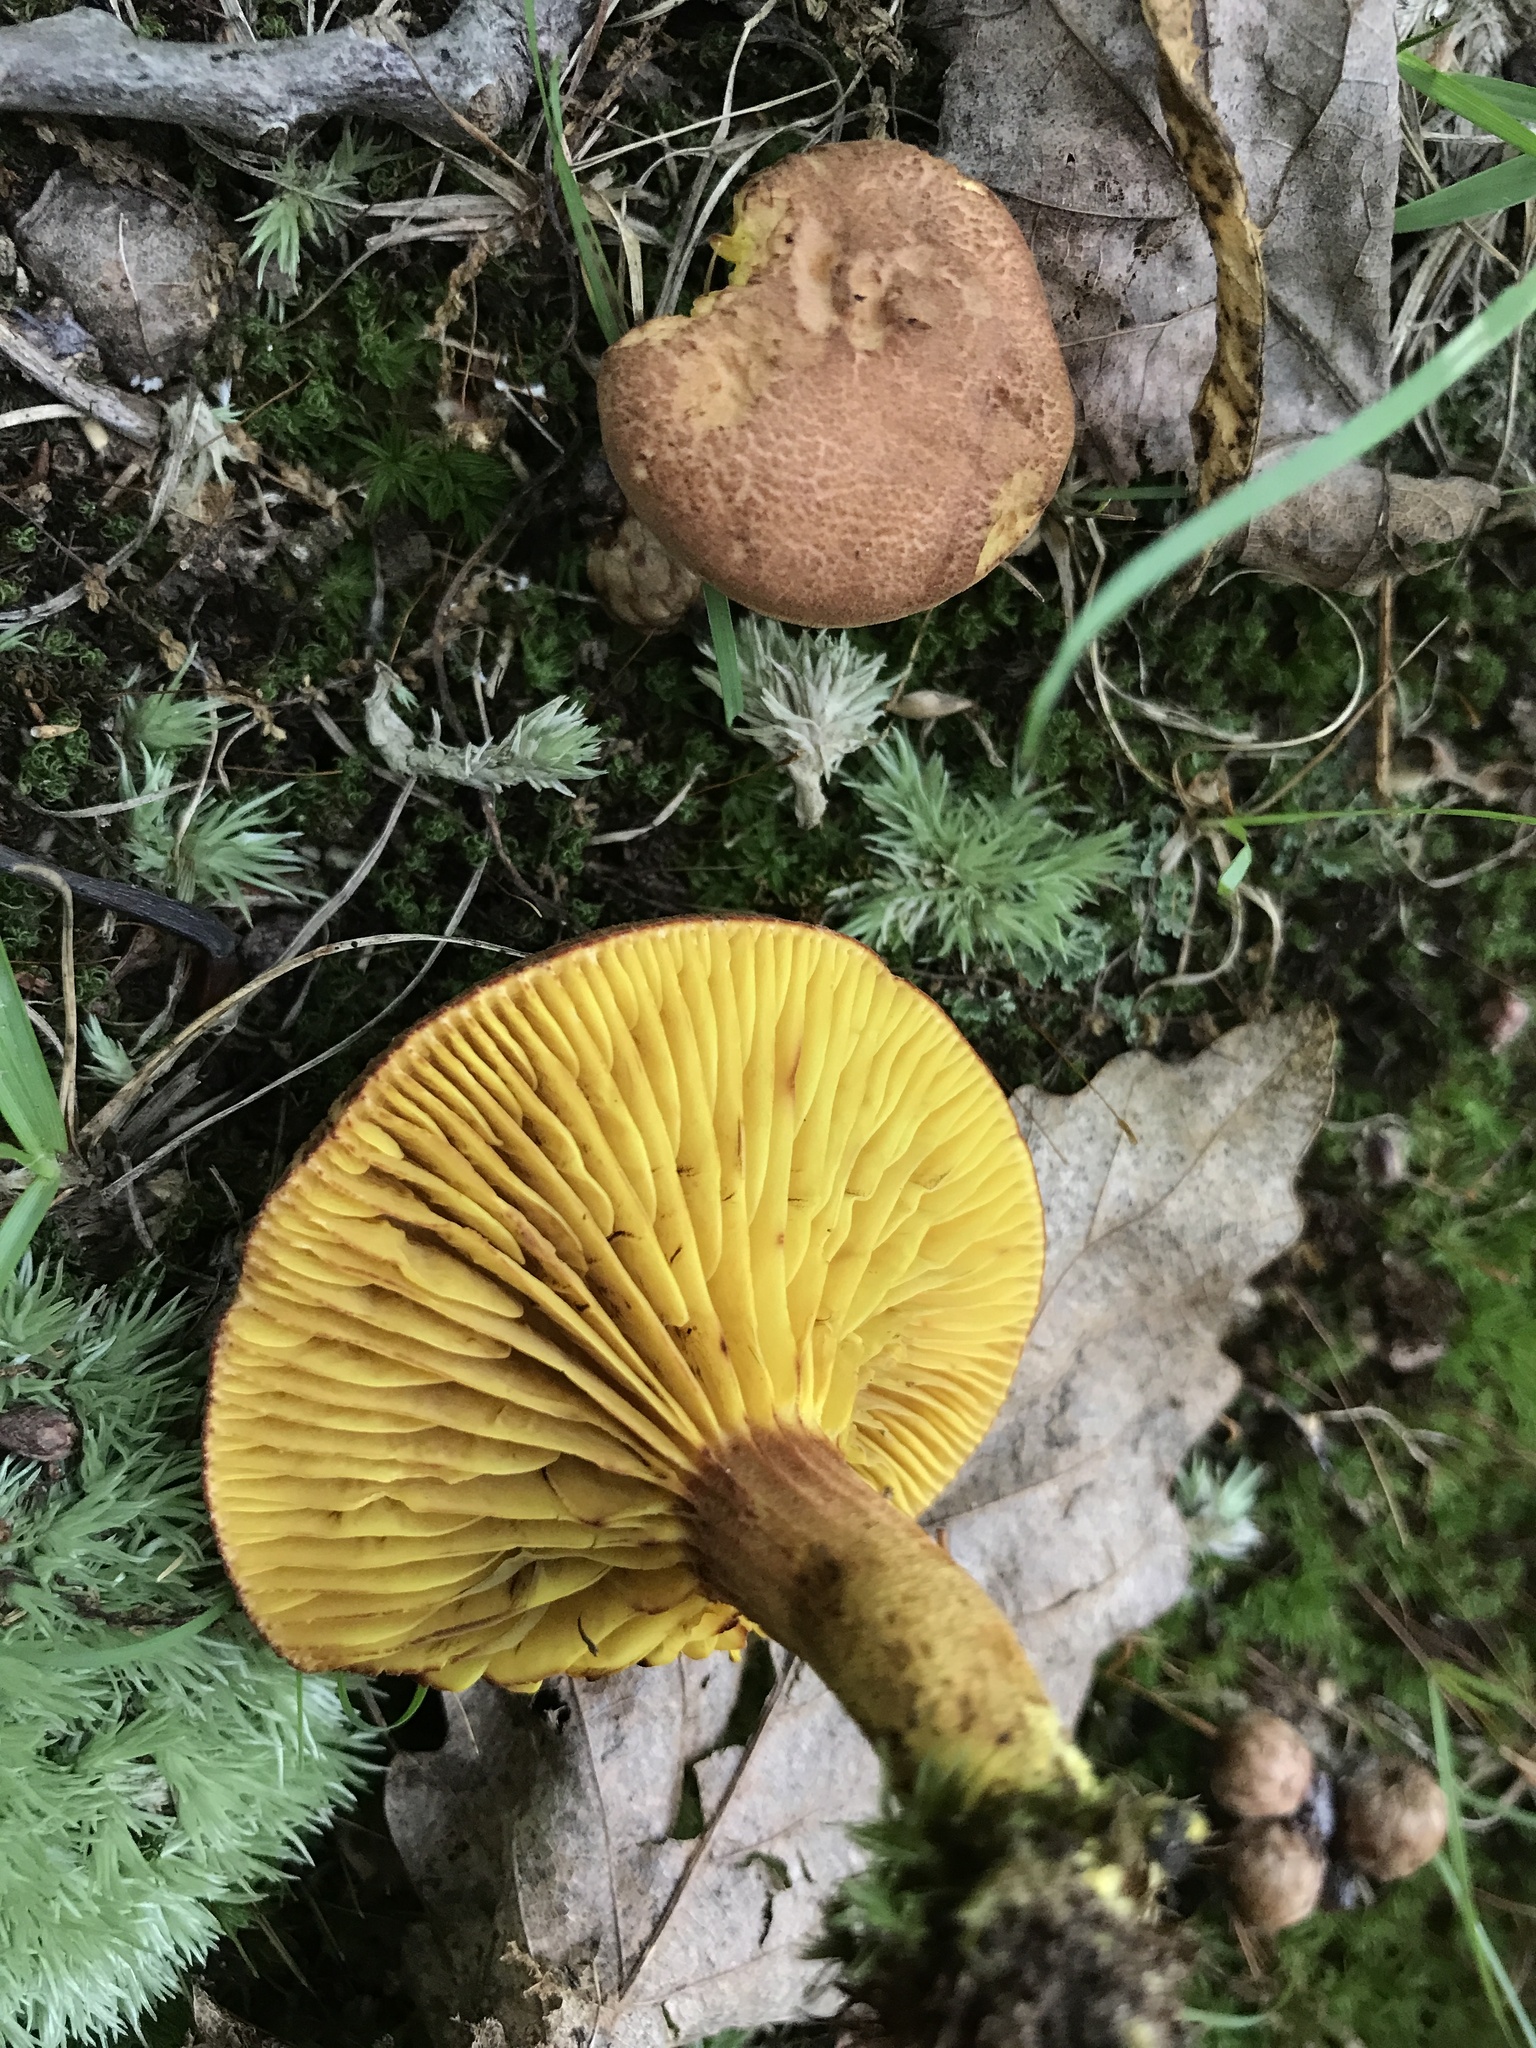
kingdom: Fungi
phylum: Basidiomycota
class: Agaricomycetes
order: Boletales
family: Boletaceae
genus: Phylloporus
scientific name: Phylloporus rhodoxanthus
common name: Golden gilled bolete
